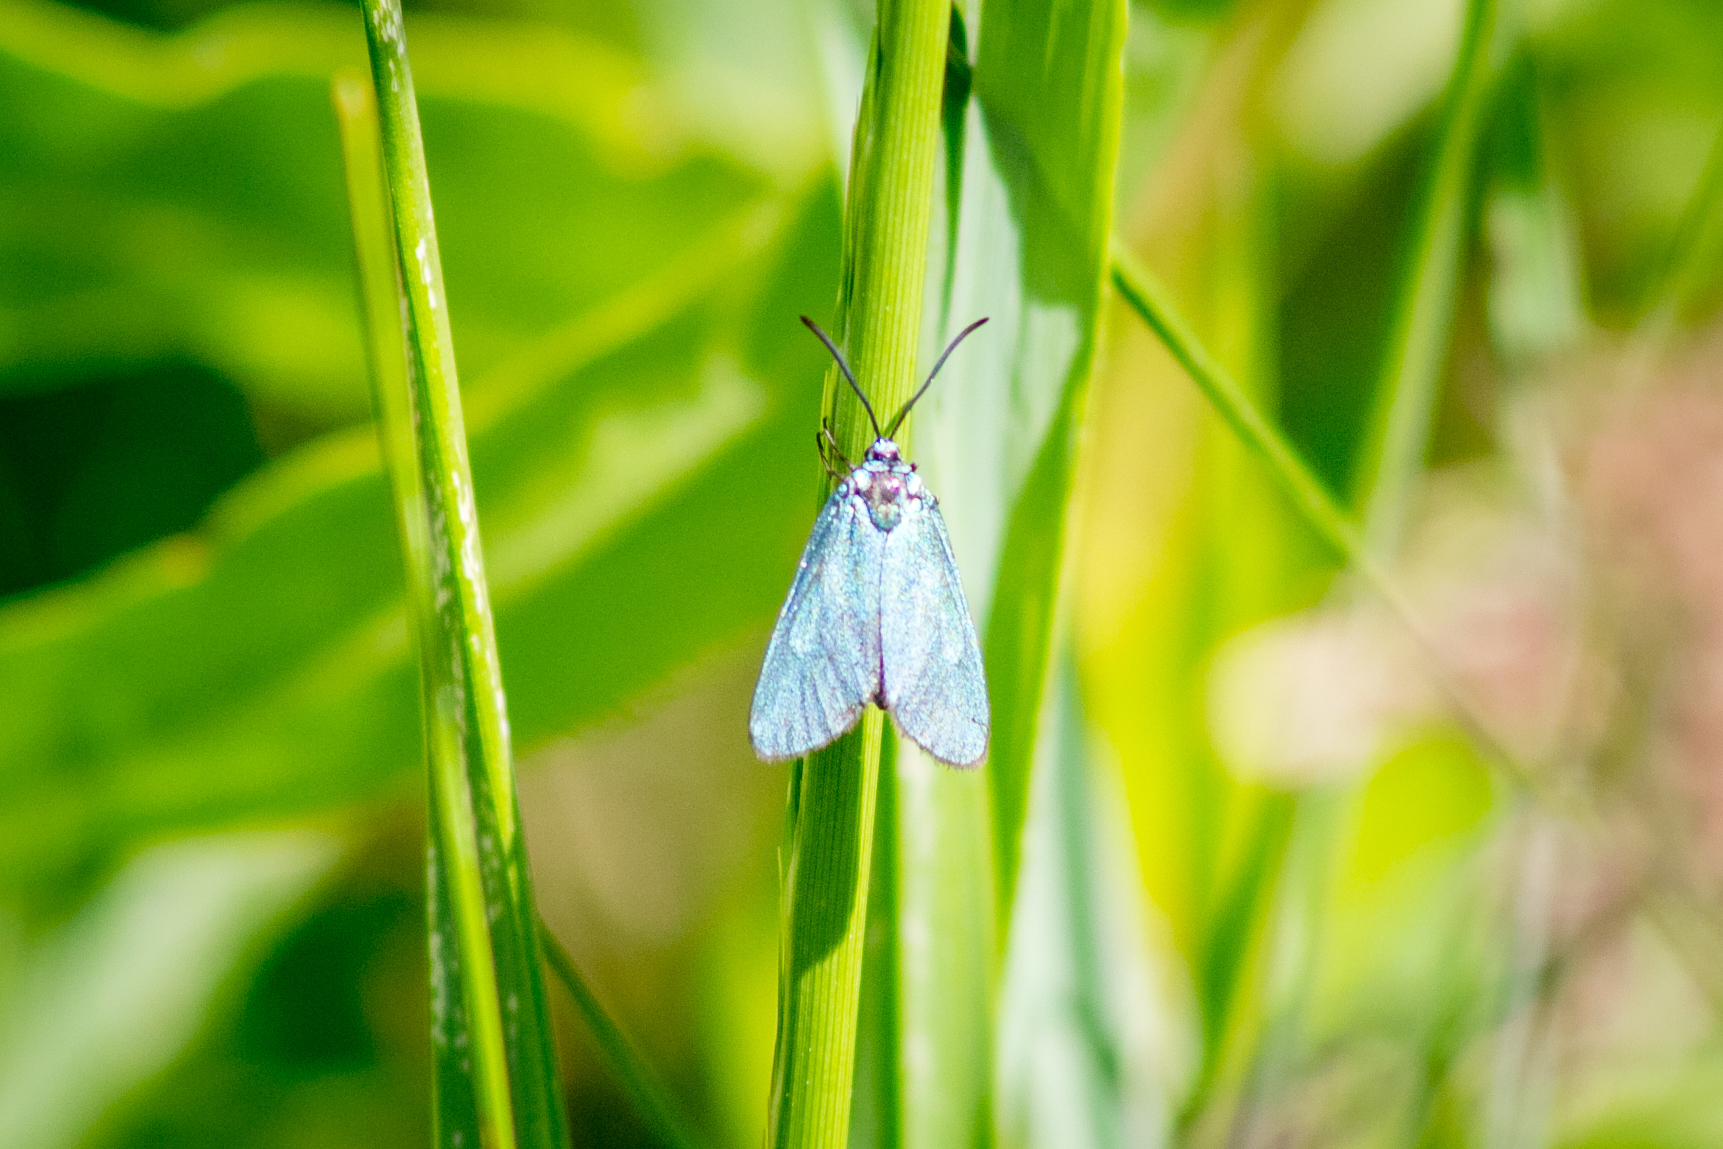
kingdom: Animalia
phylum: Arthropoda
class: Insecta
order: Lepidoptera
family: Zygaenidae
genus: Adscita
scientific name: Adscita statices
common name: Forester
